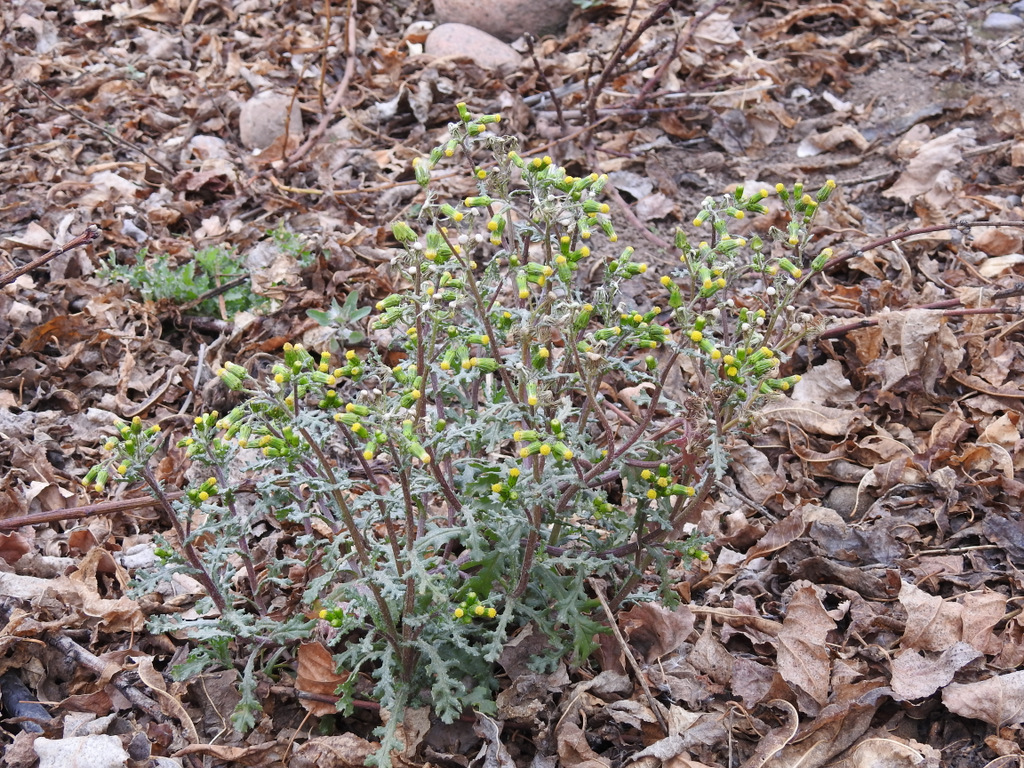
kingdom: Plantae
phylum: Tracheophyta
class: Magnoliopsida
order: Asterales
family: Asteraceae
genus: Senecio
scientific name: Senecio vulgaris
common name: Old-man-in-the-spring
